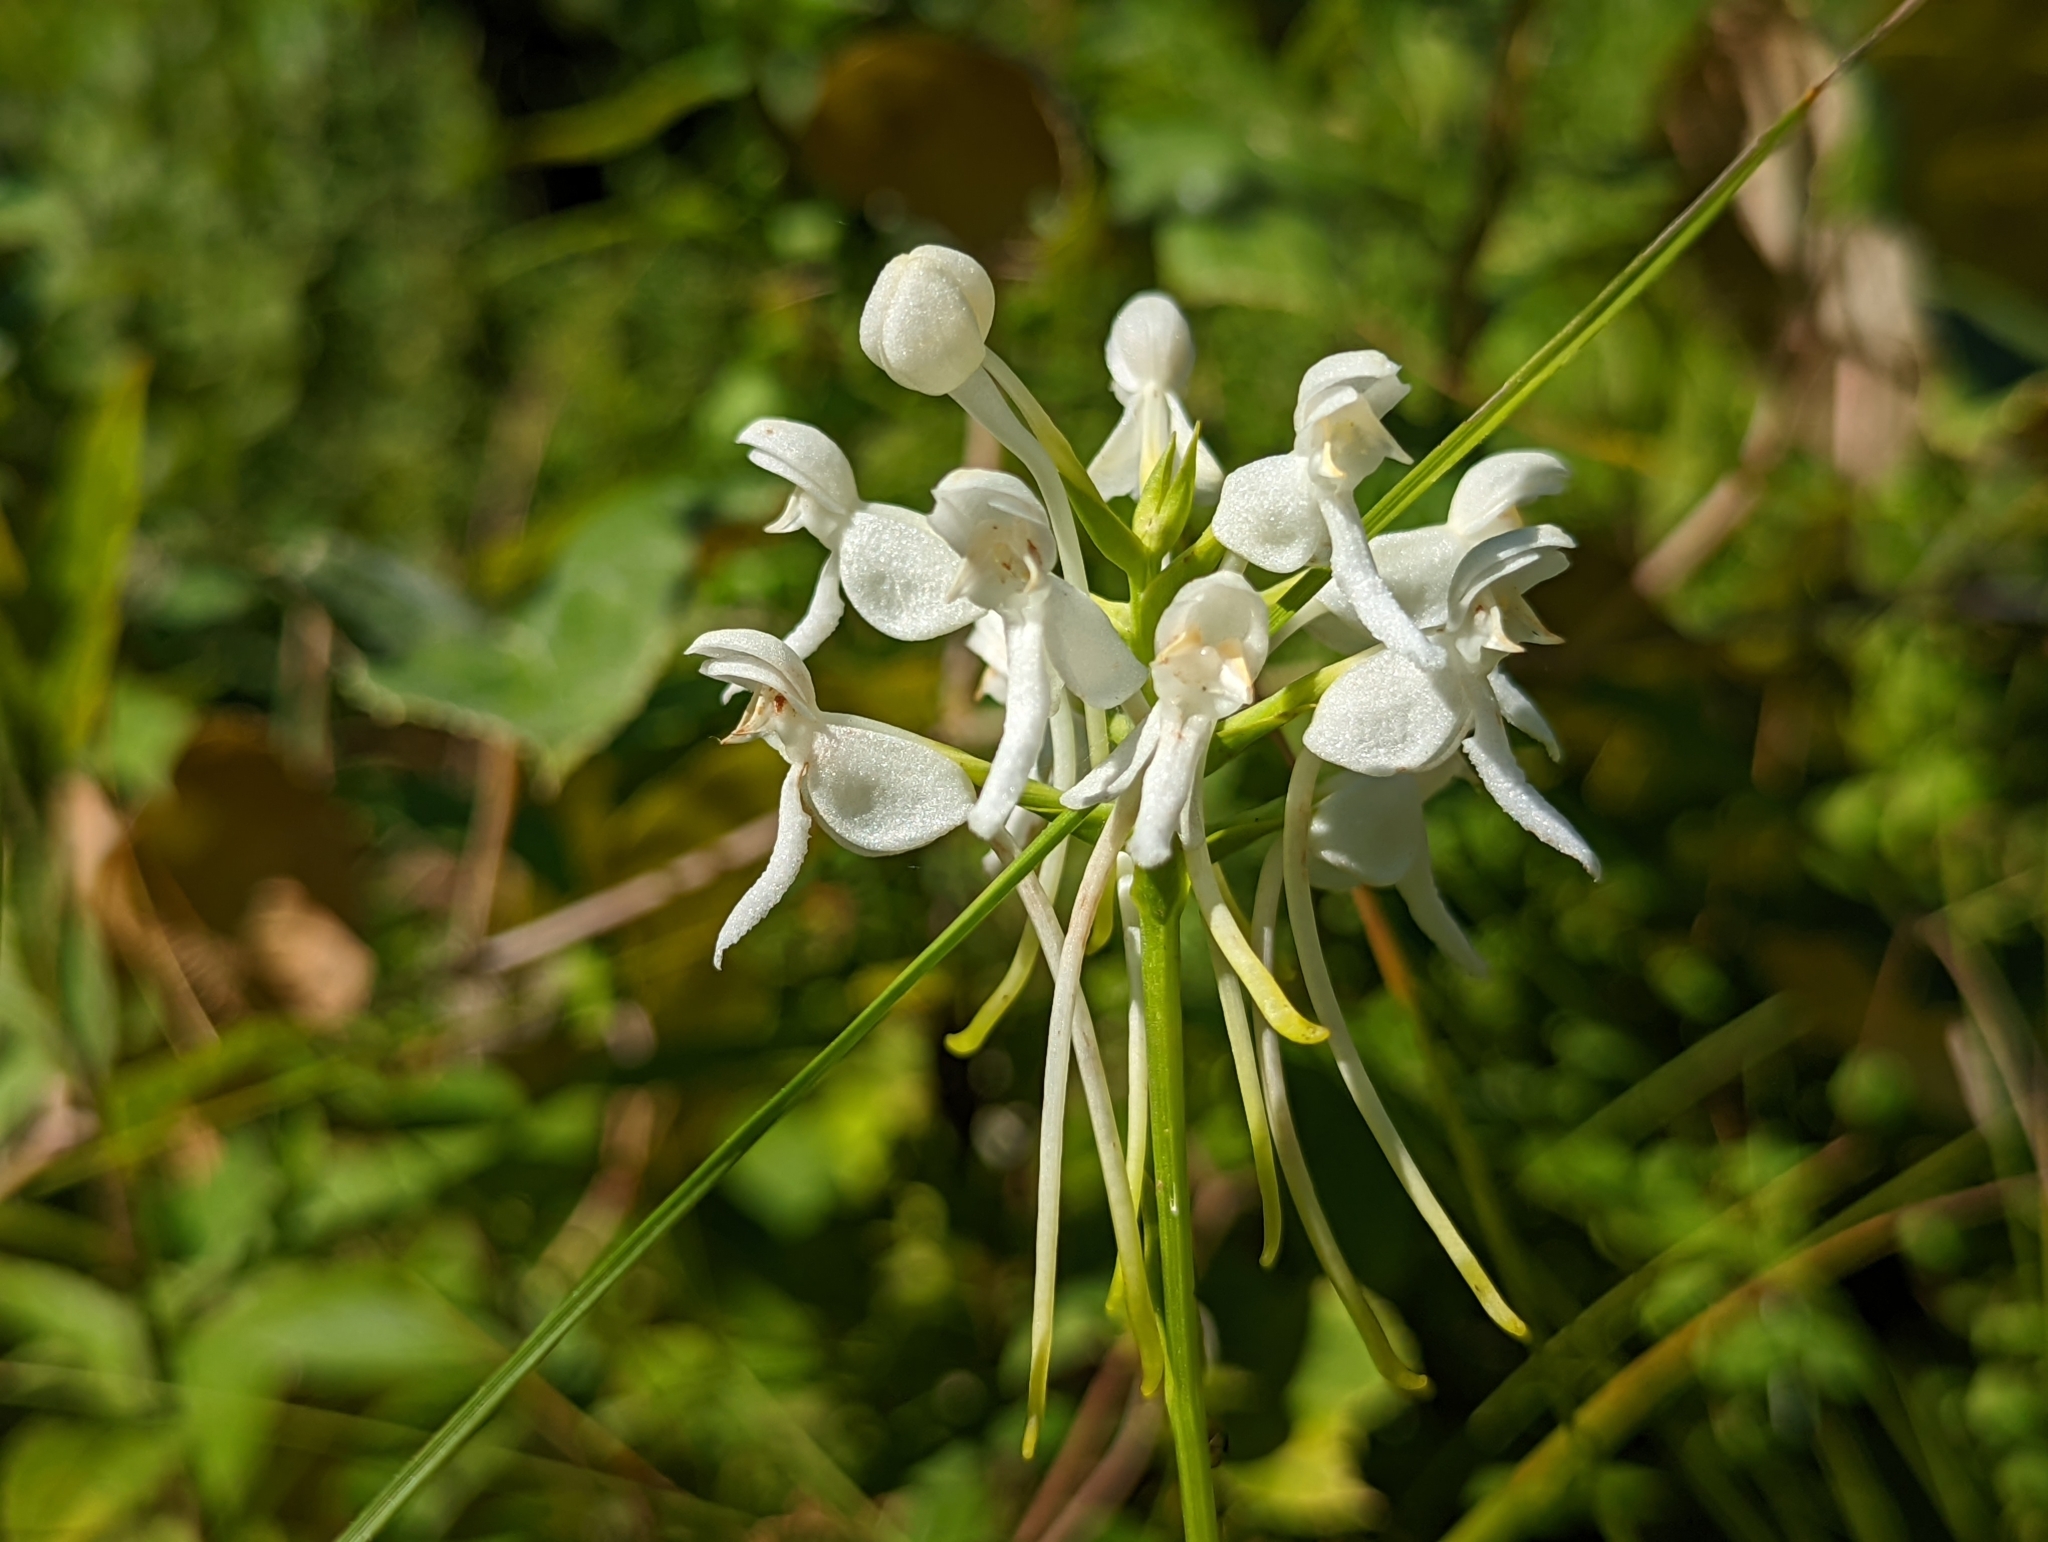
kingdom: Plantae
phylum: Tracheophyta
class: Liliopsida
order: Asparagales
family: Orchidaceae
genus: Platanthera
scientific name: Platanthera integrilabia
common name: White fringeless orchid
